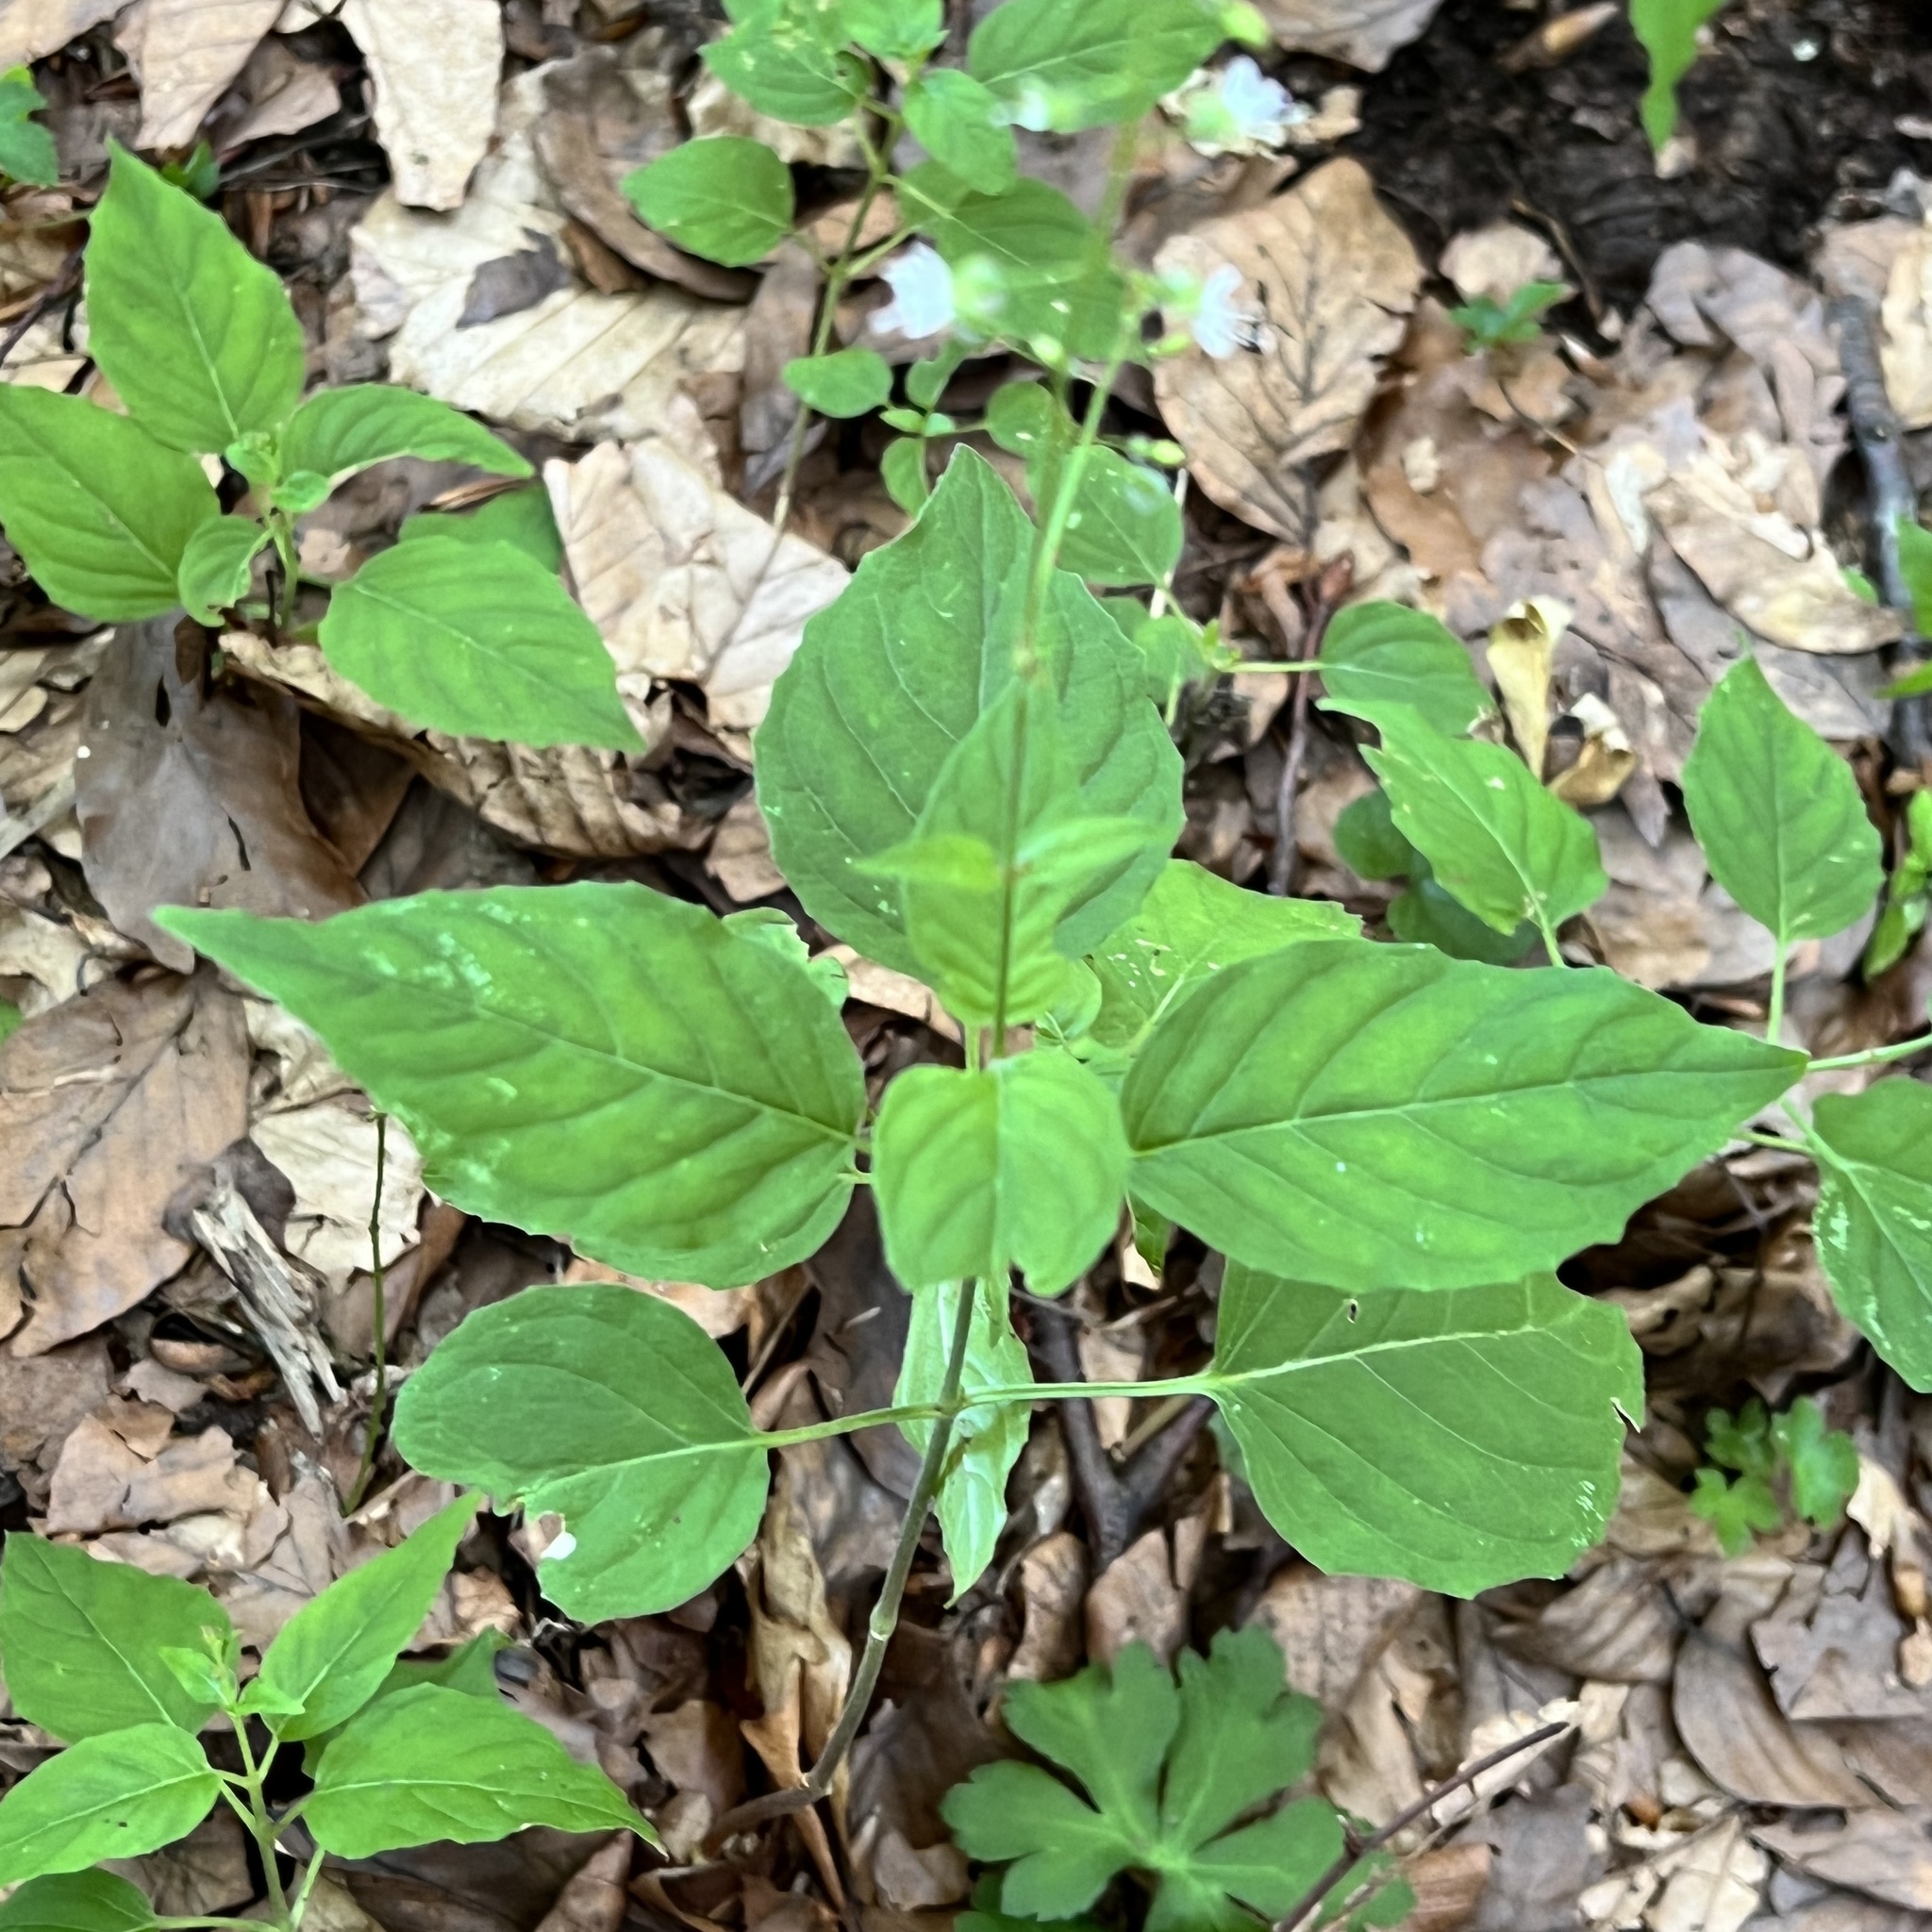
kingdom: Plantae
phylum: Tracheophyta
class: Magnoliopsida
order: Myrtales
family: Onagraceae
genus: Circaea
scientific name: Circaea lutetiana
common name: Enchanter's-nightshade
